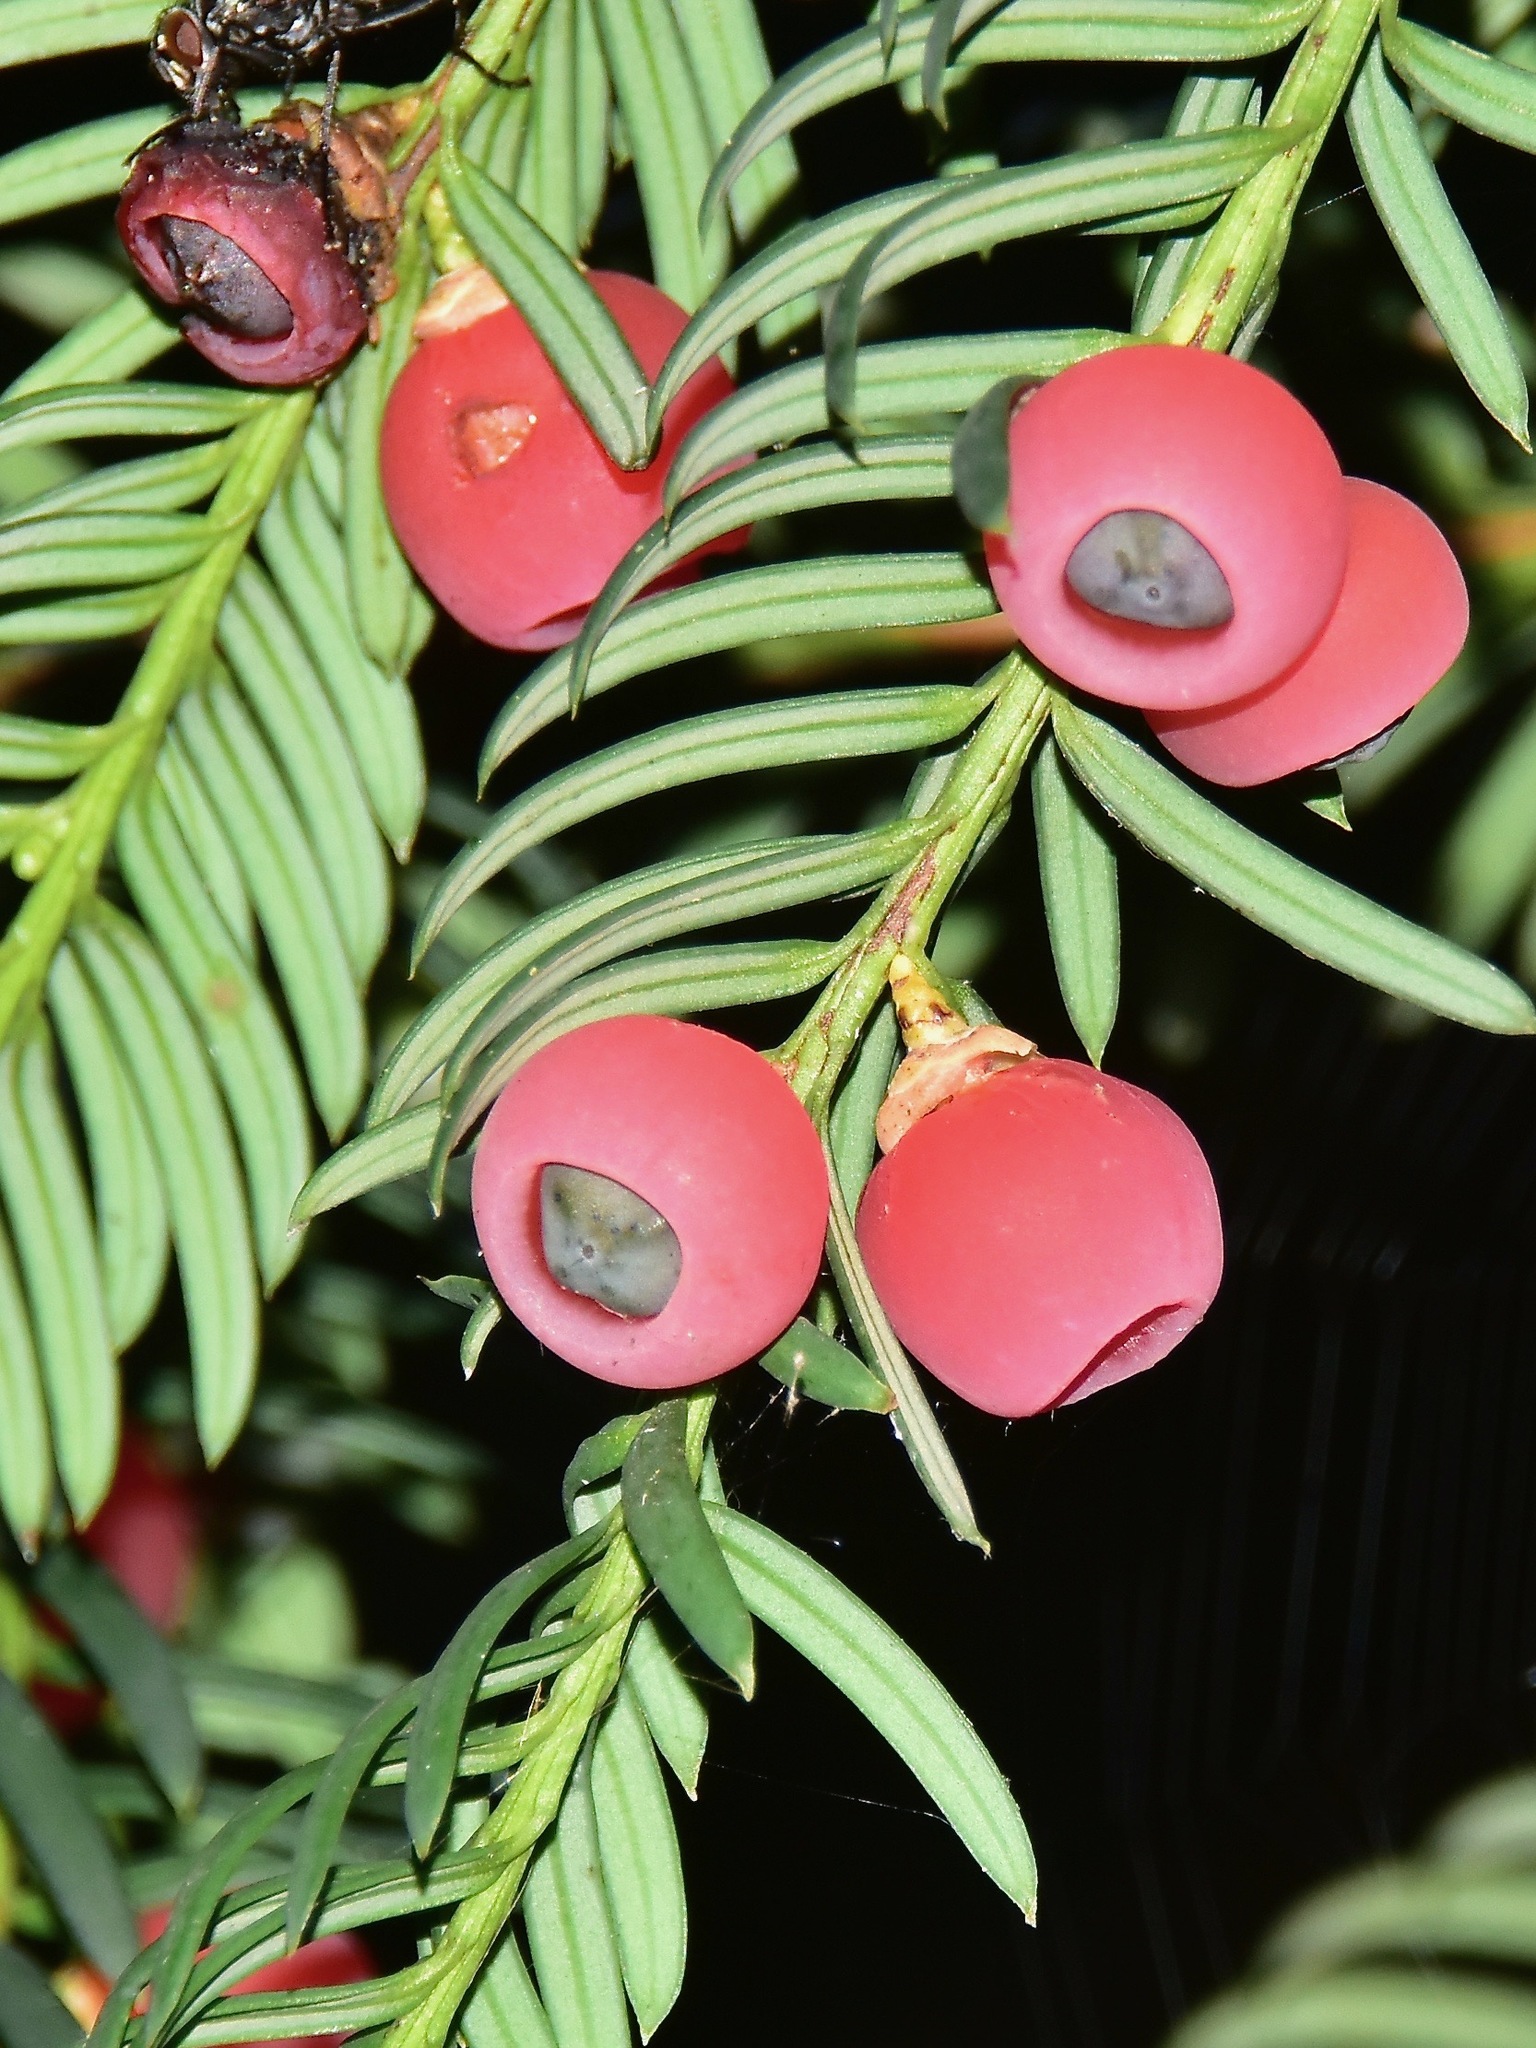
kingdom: Plantae
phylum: Tracheophyta
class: Pinopsida
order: Pinales
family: Taxaceae
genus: Taxus
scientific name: Taxus baccata
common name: Yew
